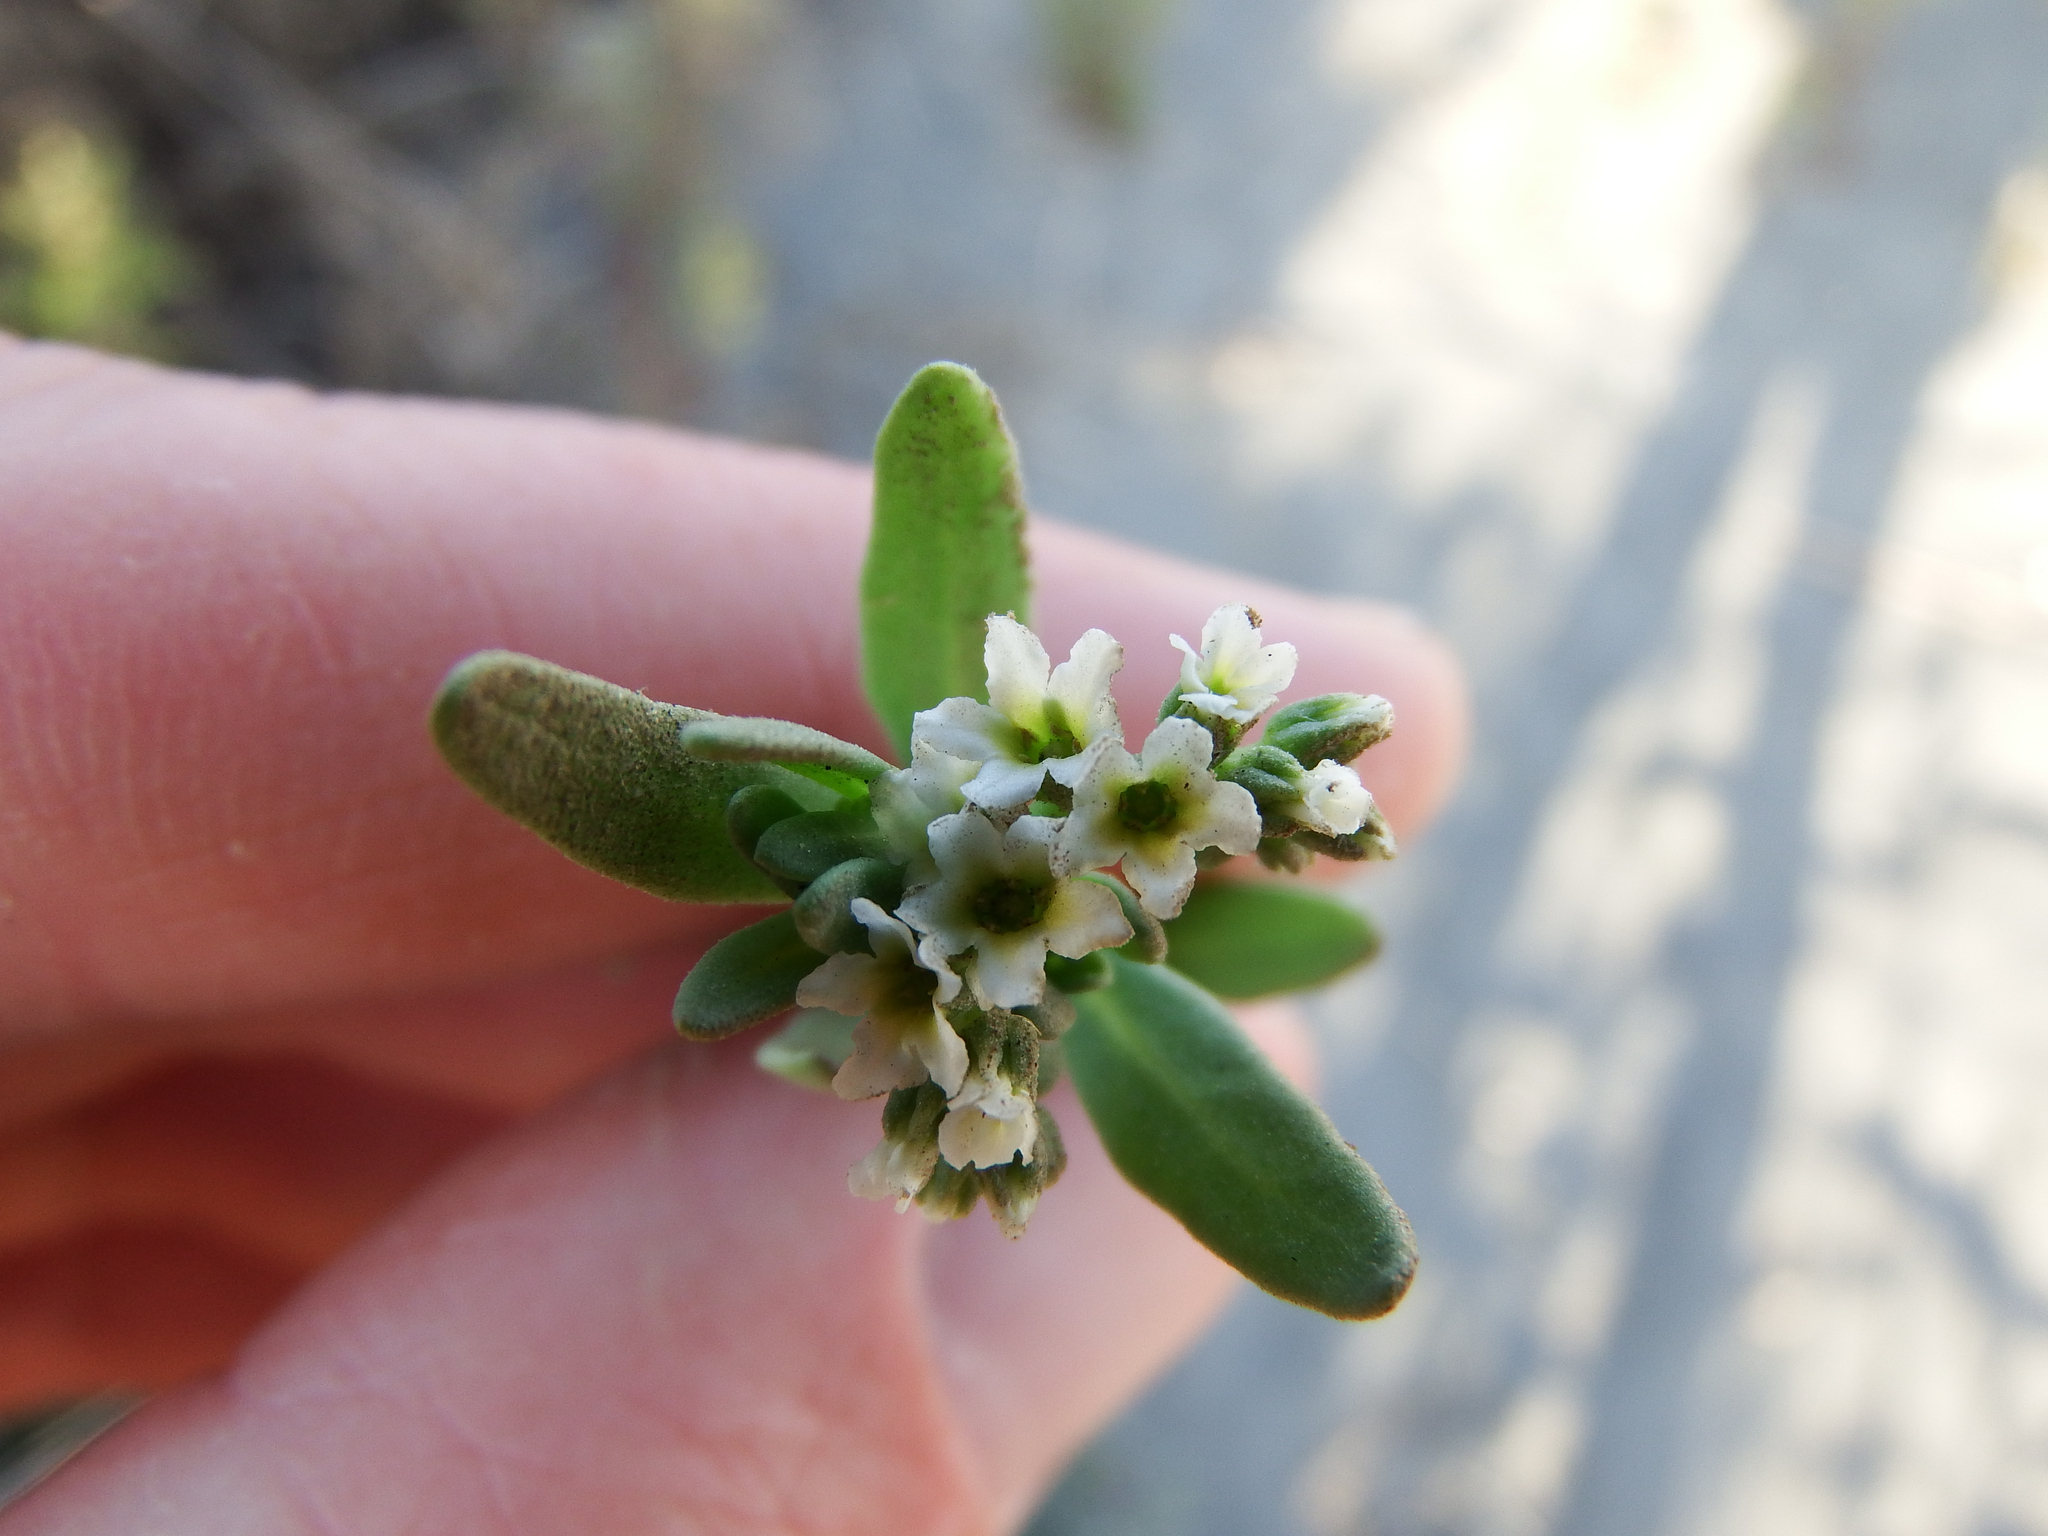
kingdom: Plantae
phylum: Tracheophyta
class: Magnoliopsida
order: Boraginales
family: Heliotropiaceae
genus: Heliotropium
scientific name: Heliotropium curassavicum
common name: Seaside heliotrope
